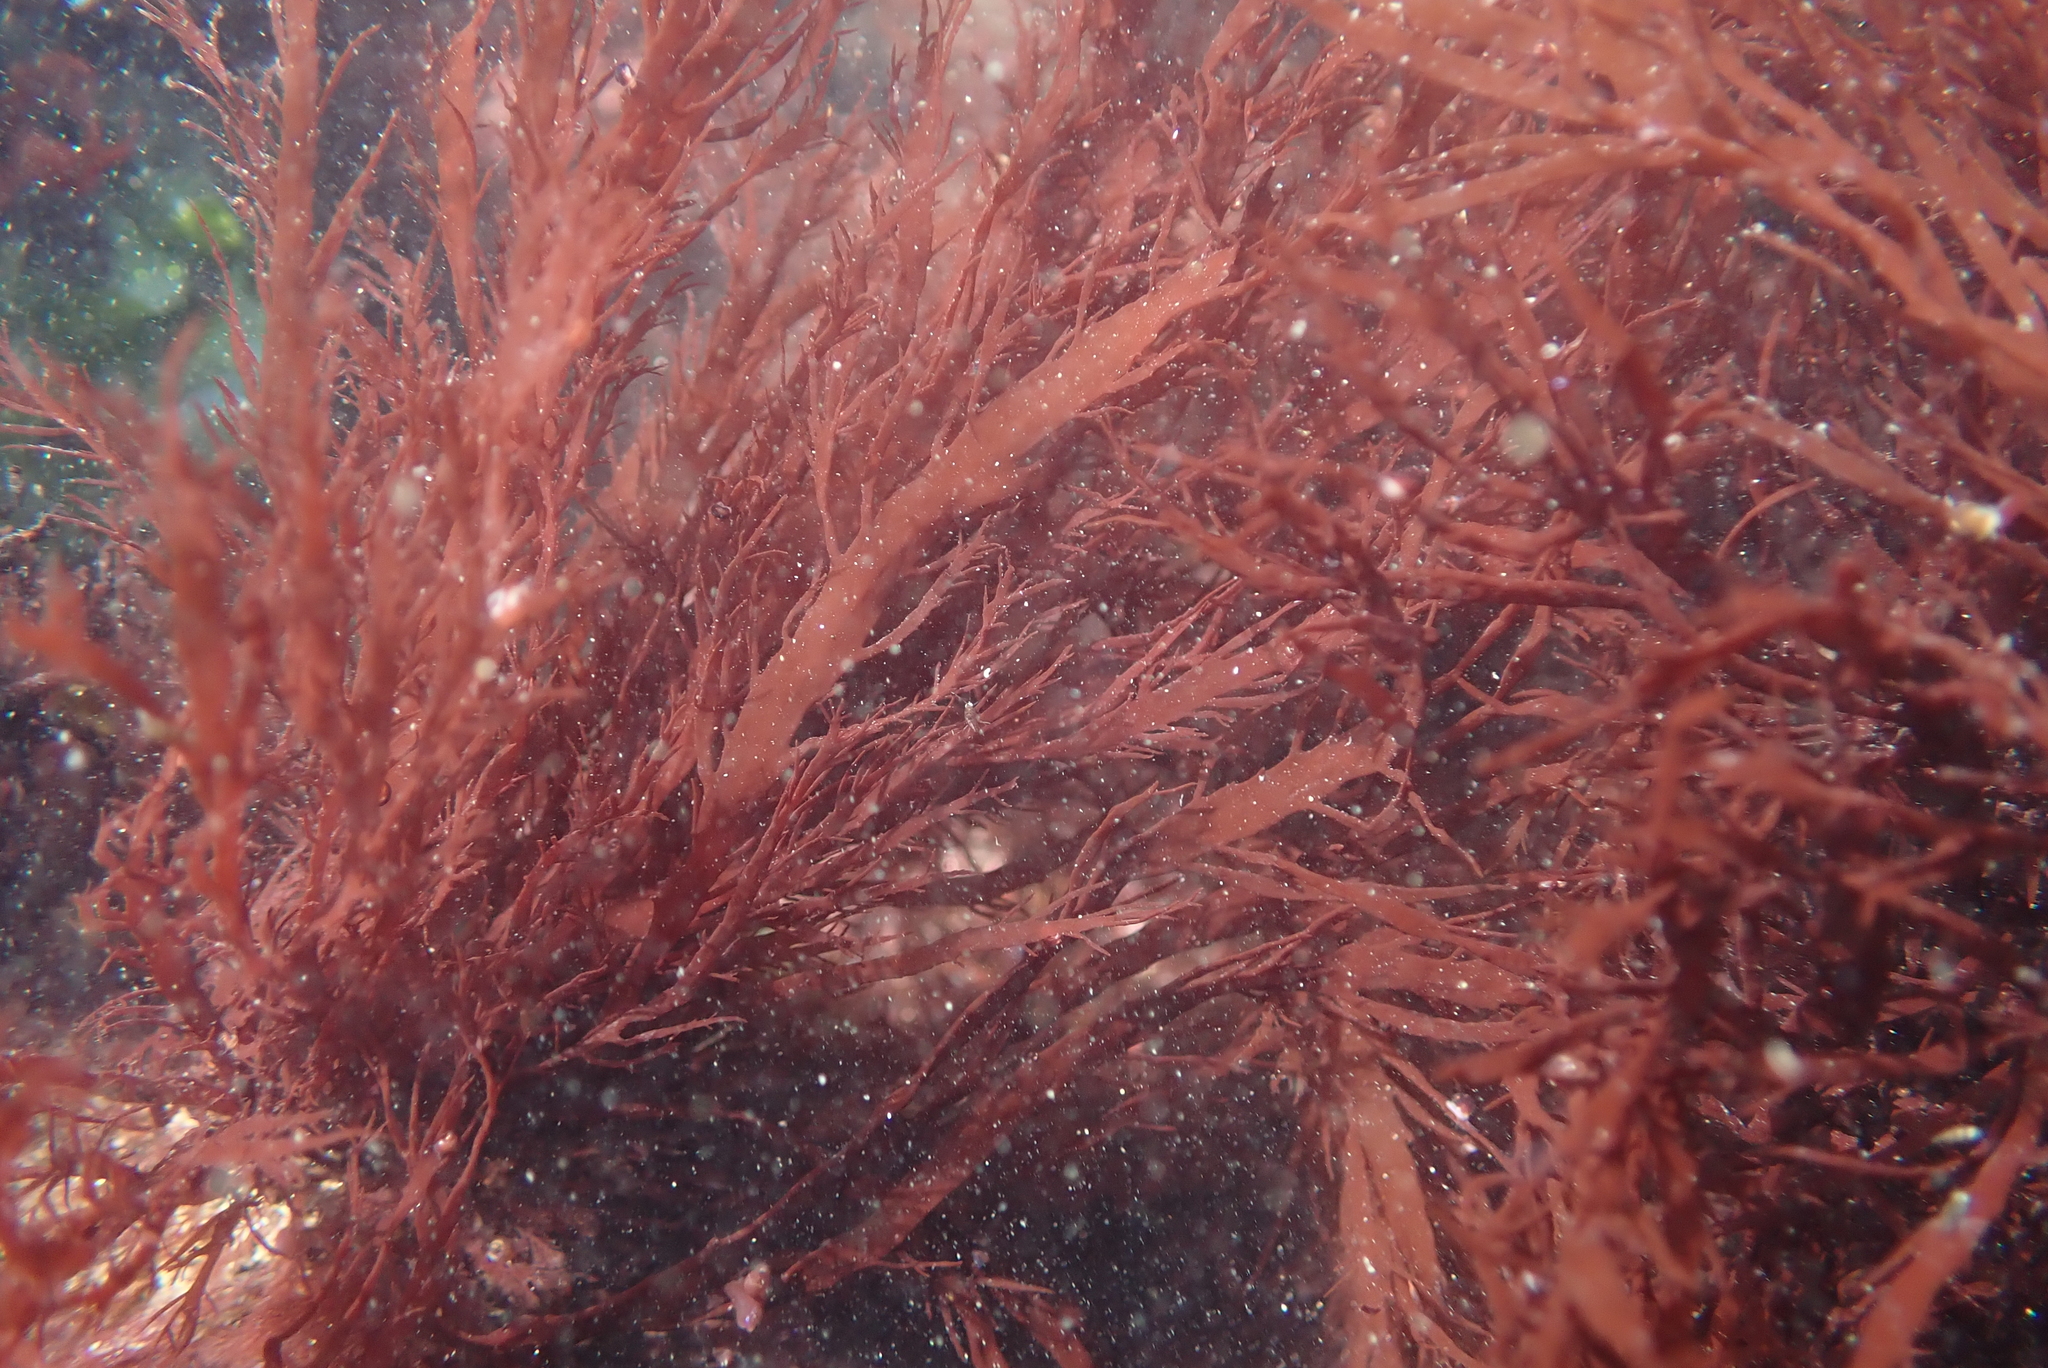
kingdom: Plantae
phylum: Rhodophyta
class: Florideophyceae
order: Gigartinales
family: Dumontiaceae
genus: Farlowia
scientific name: Farlowia mollis
